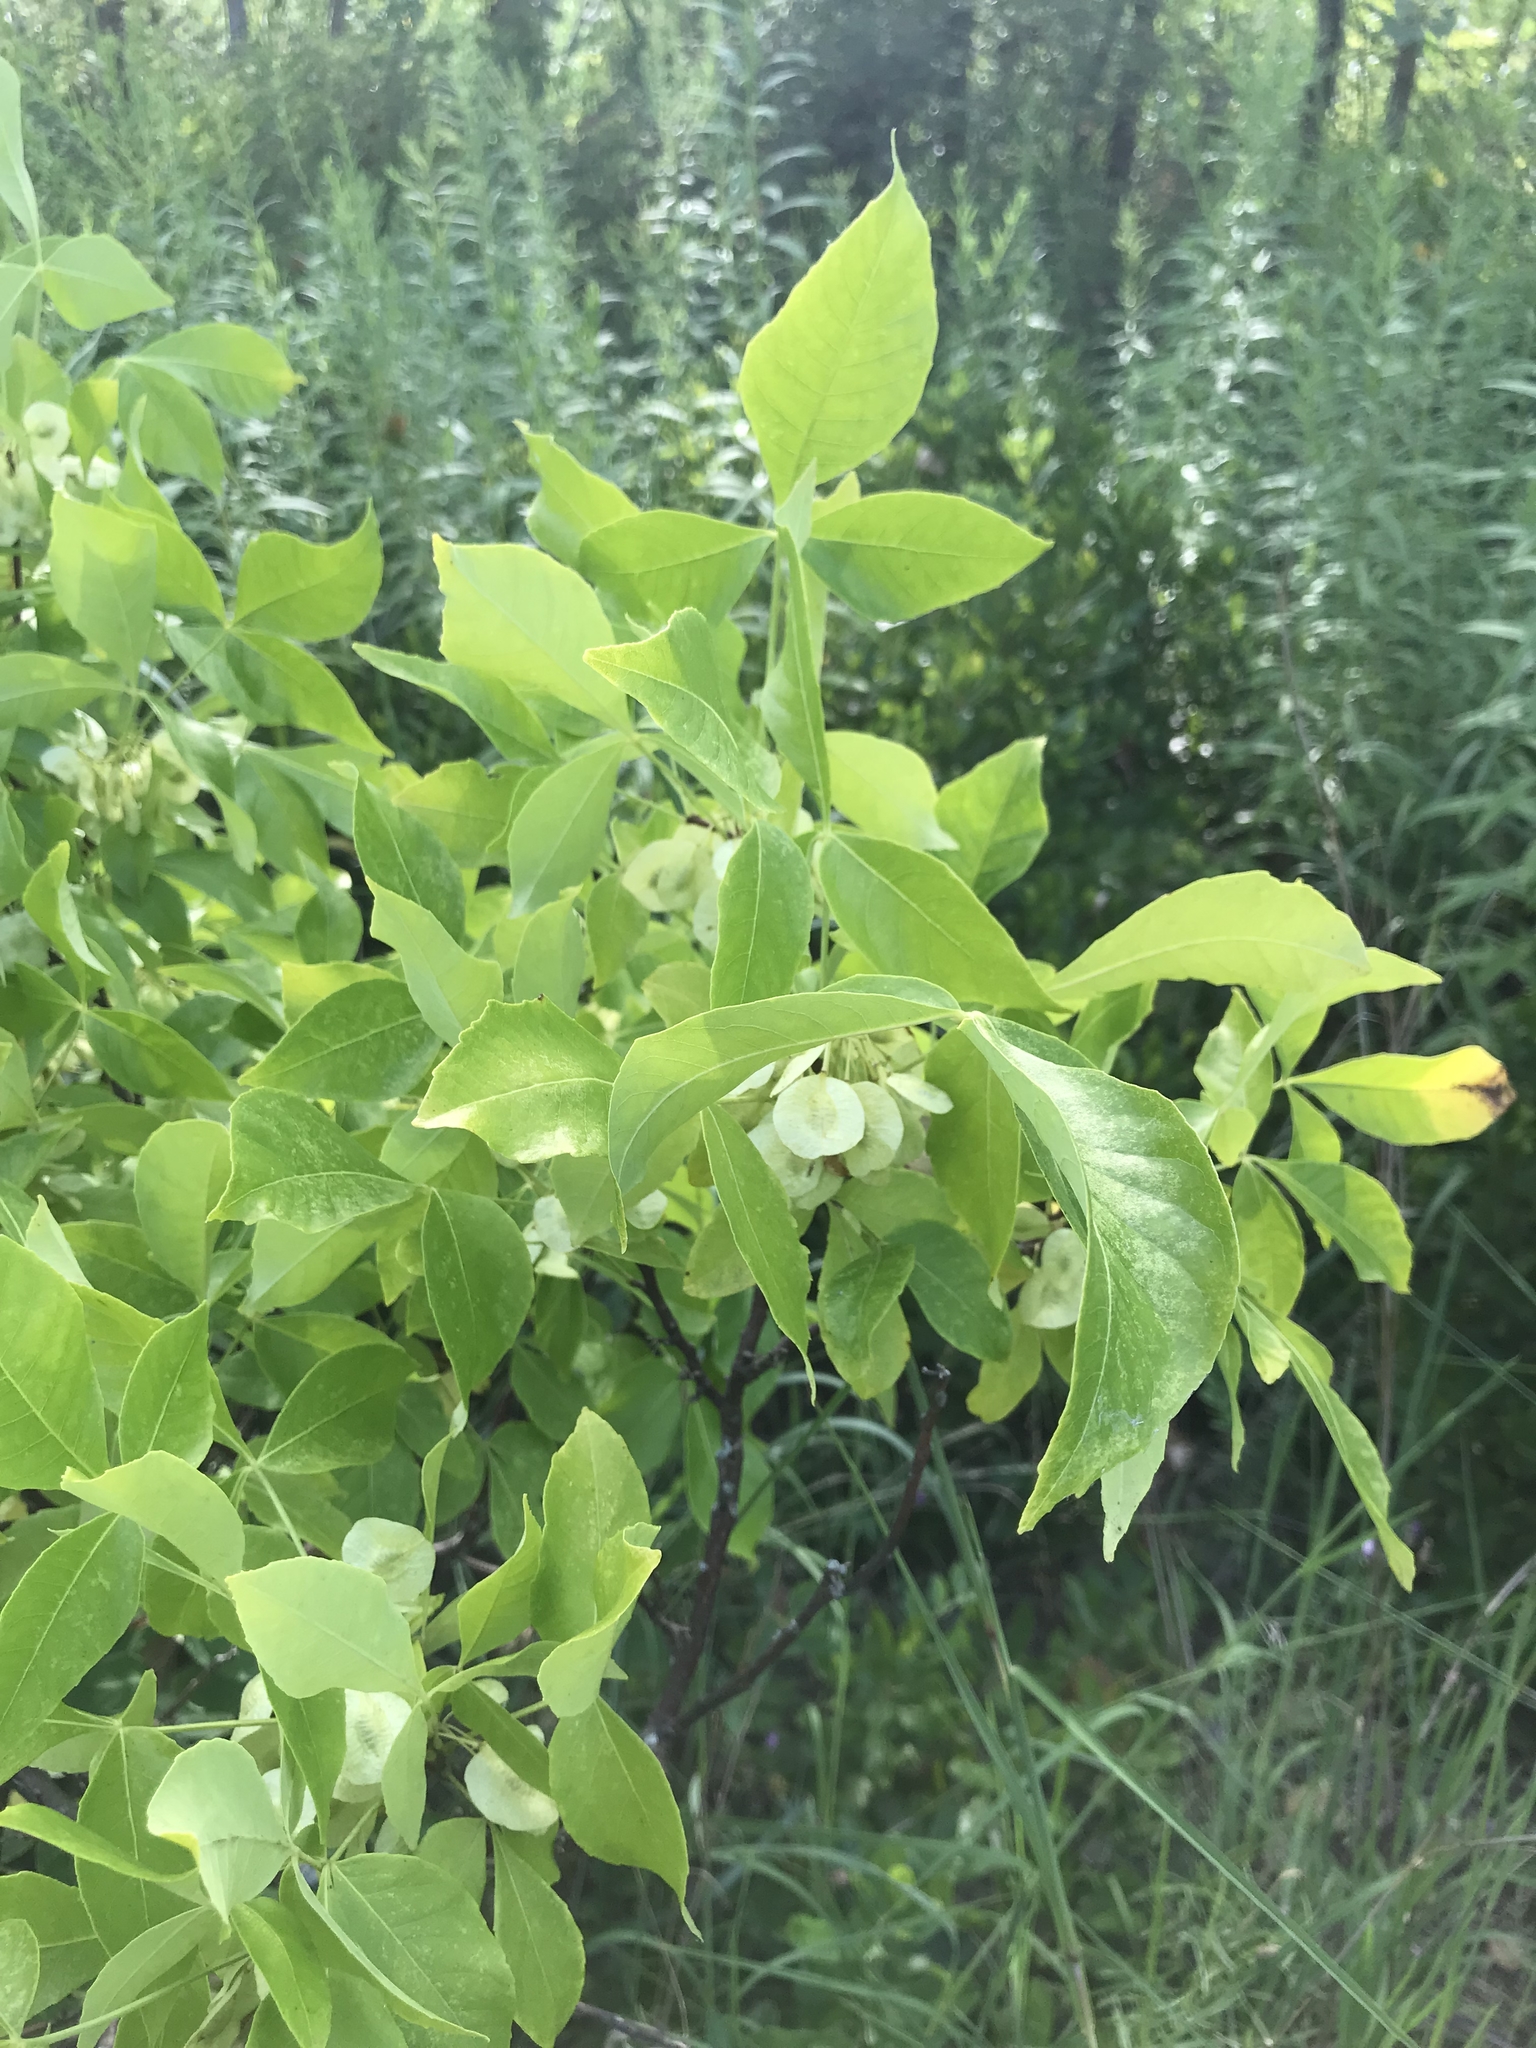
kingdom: Plantae
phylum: Tracheophyta
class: Magnoliopsida
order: Sapindales
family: Rutaceae
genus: Ptelea
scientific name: Ptelea trifoliata
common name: Common hop-tree
